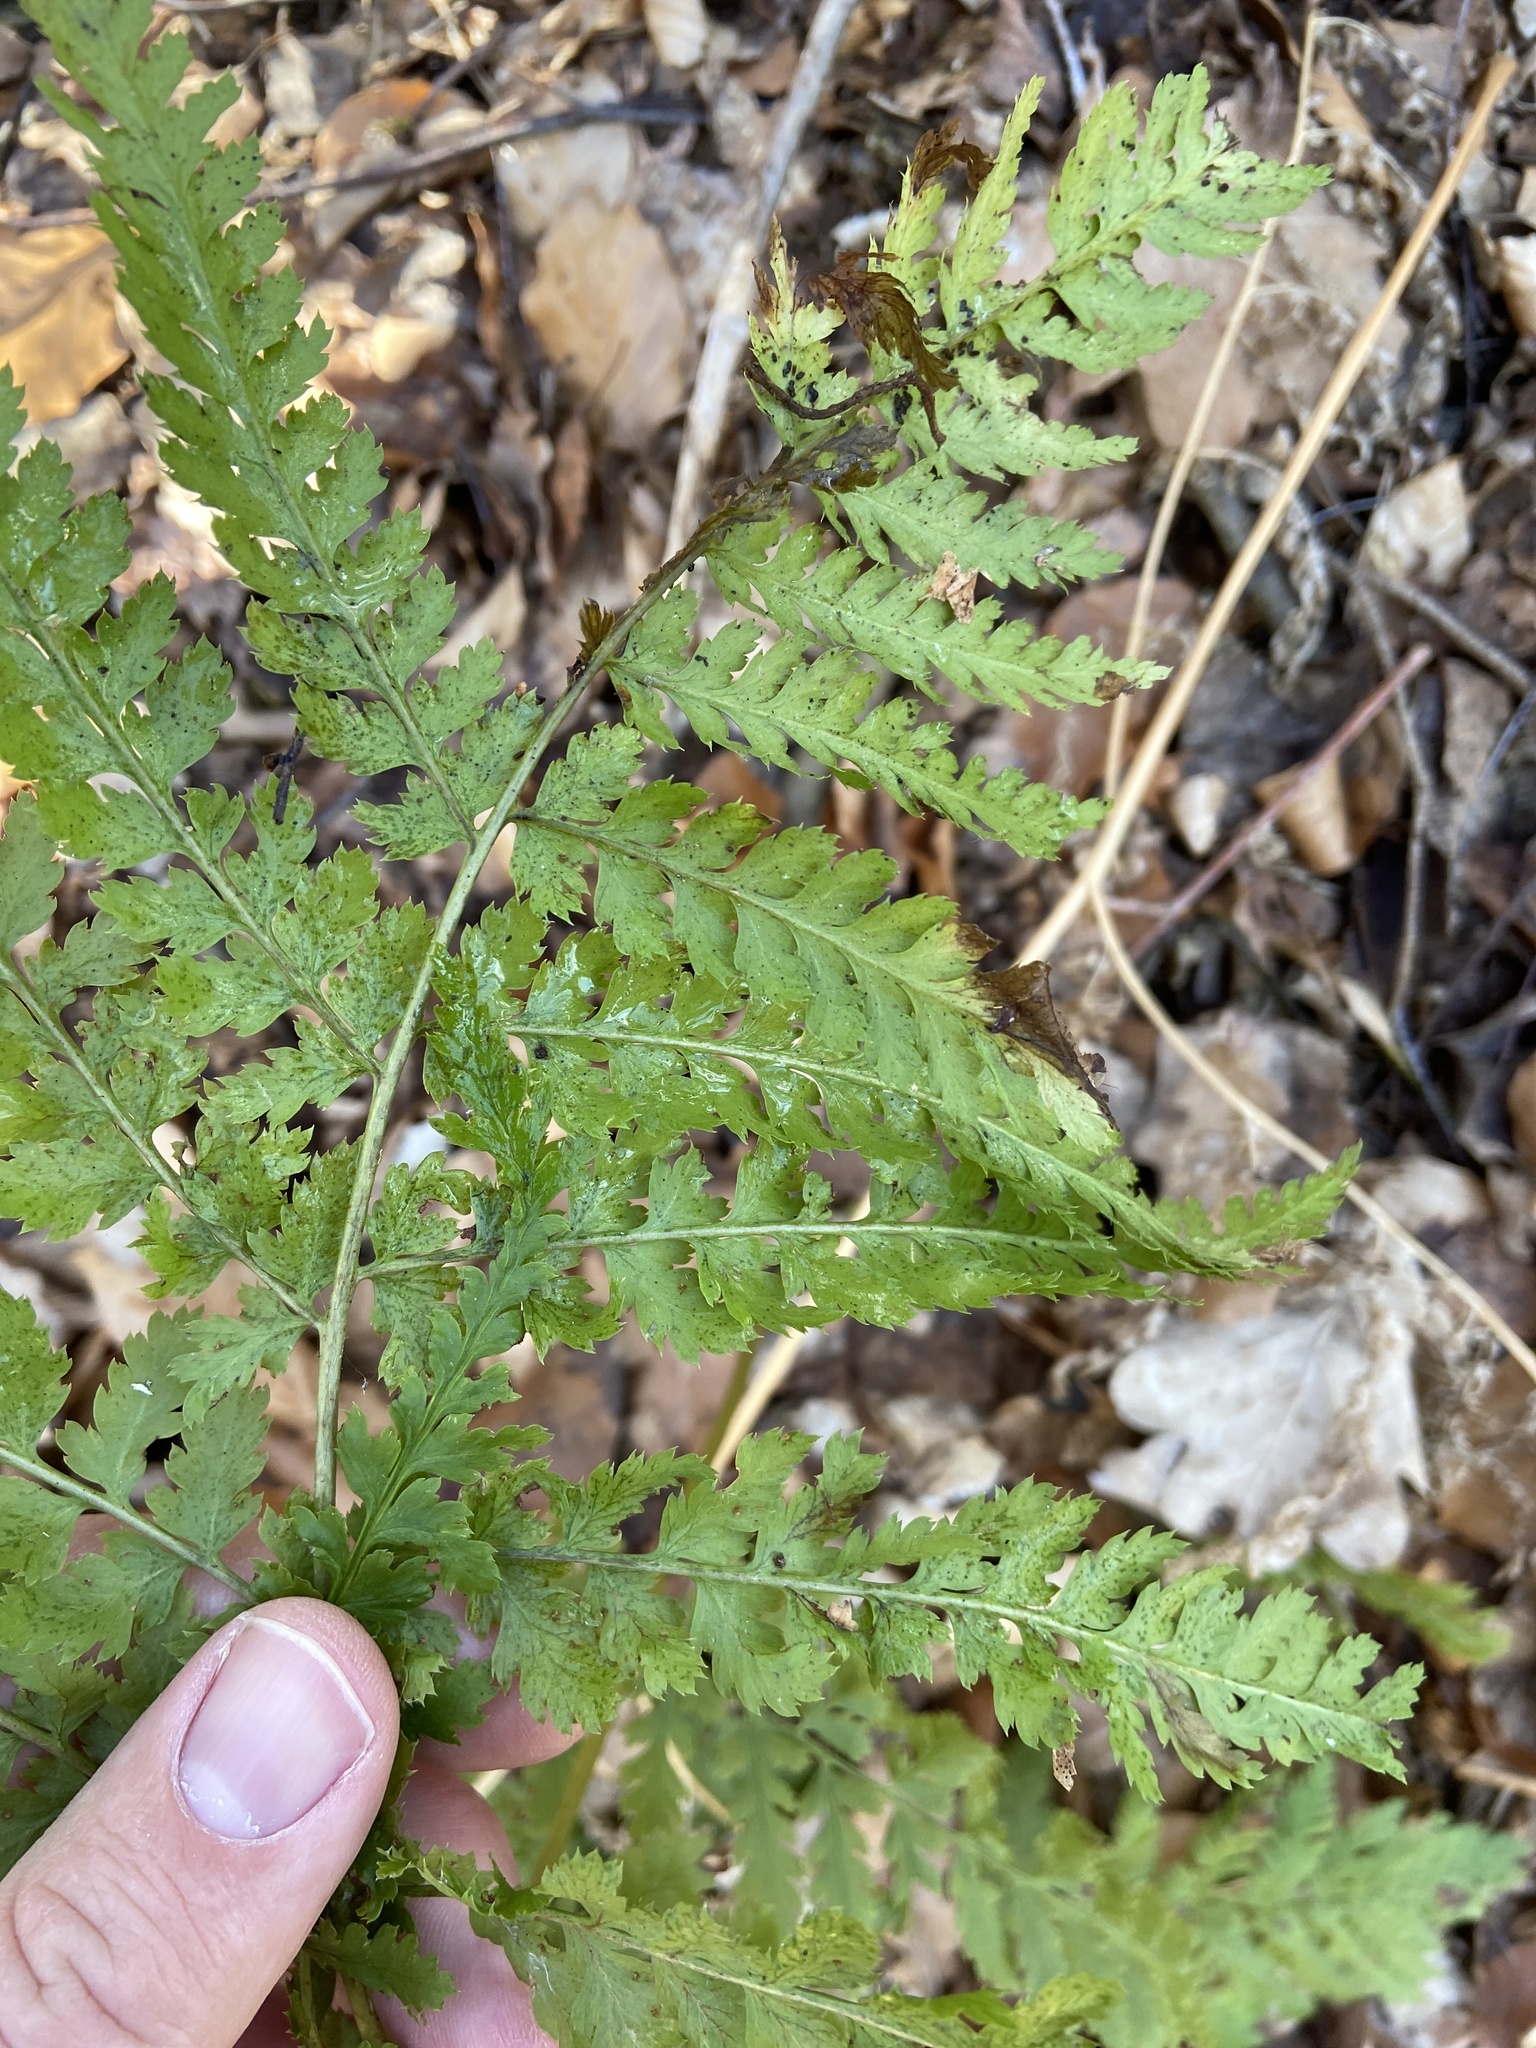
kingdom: Plantae
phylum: Tracheophyta
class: Polypodiopsida
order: Polypodiales
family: Dryopteridaceae
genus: Dryopteris
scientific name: Dryopteris carthusiana
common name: Narrow buckler-fern
